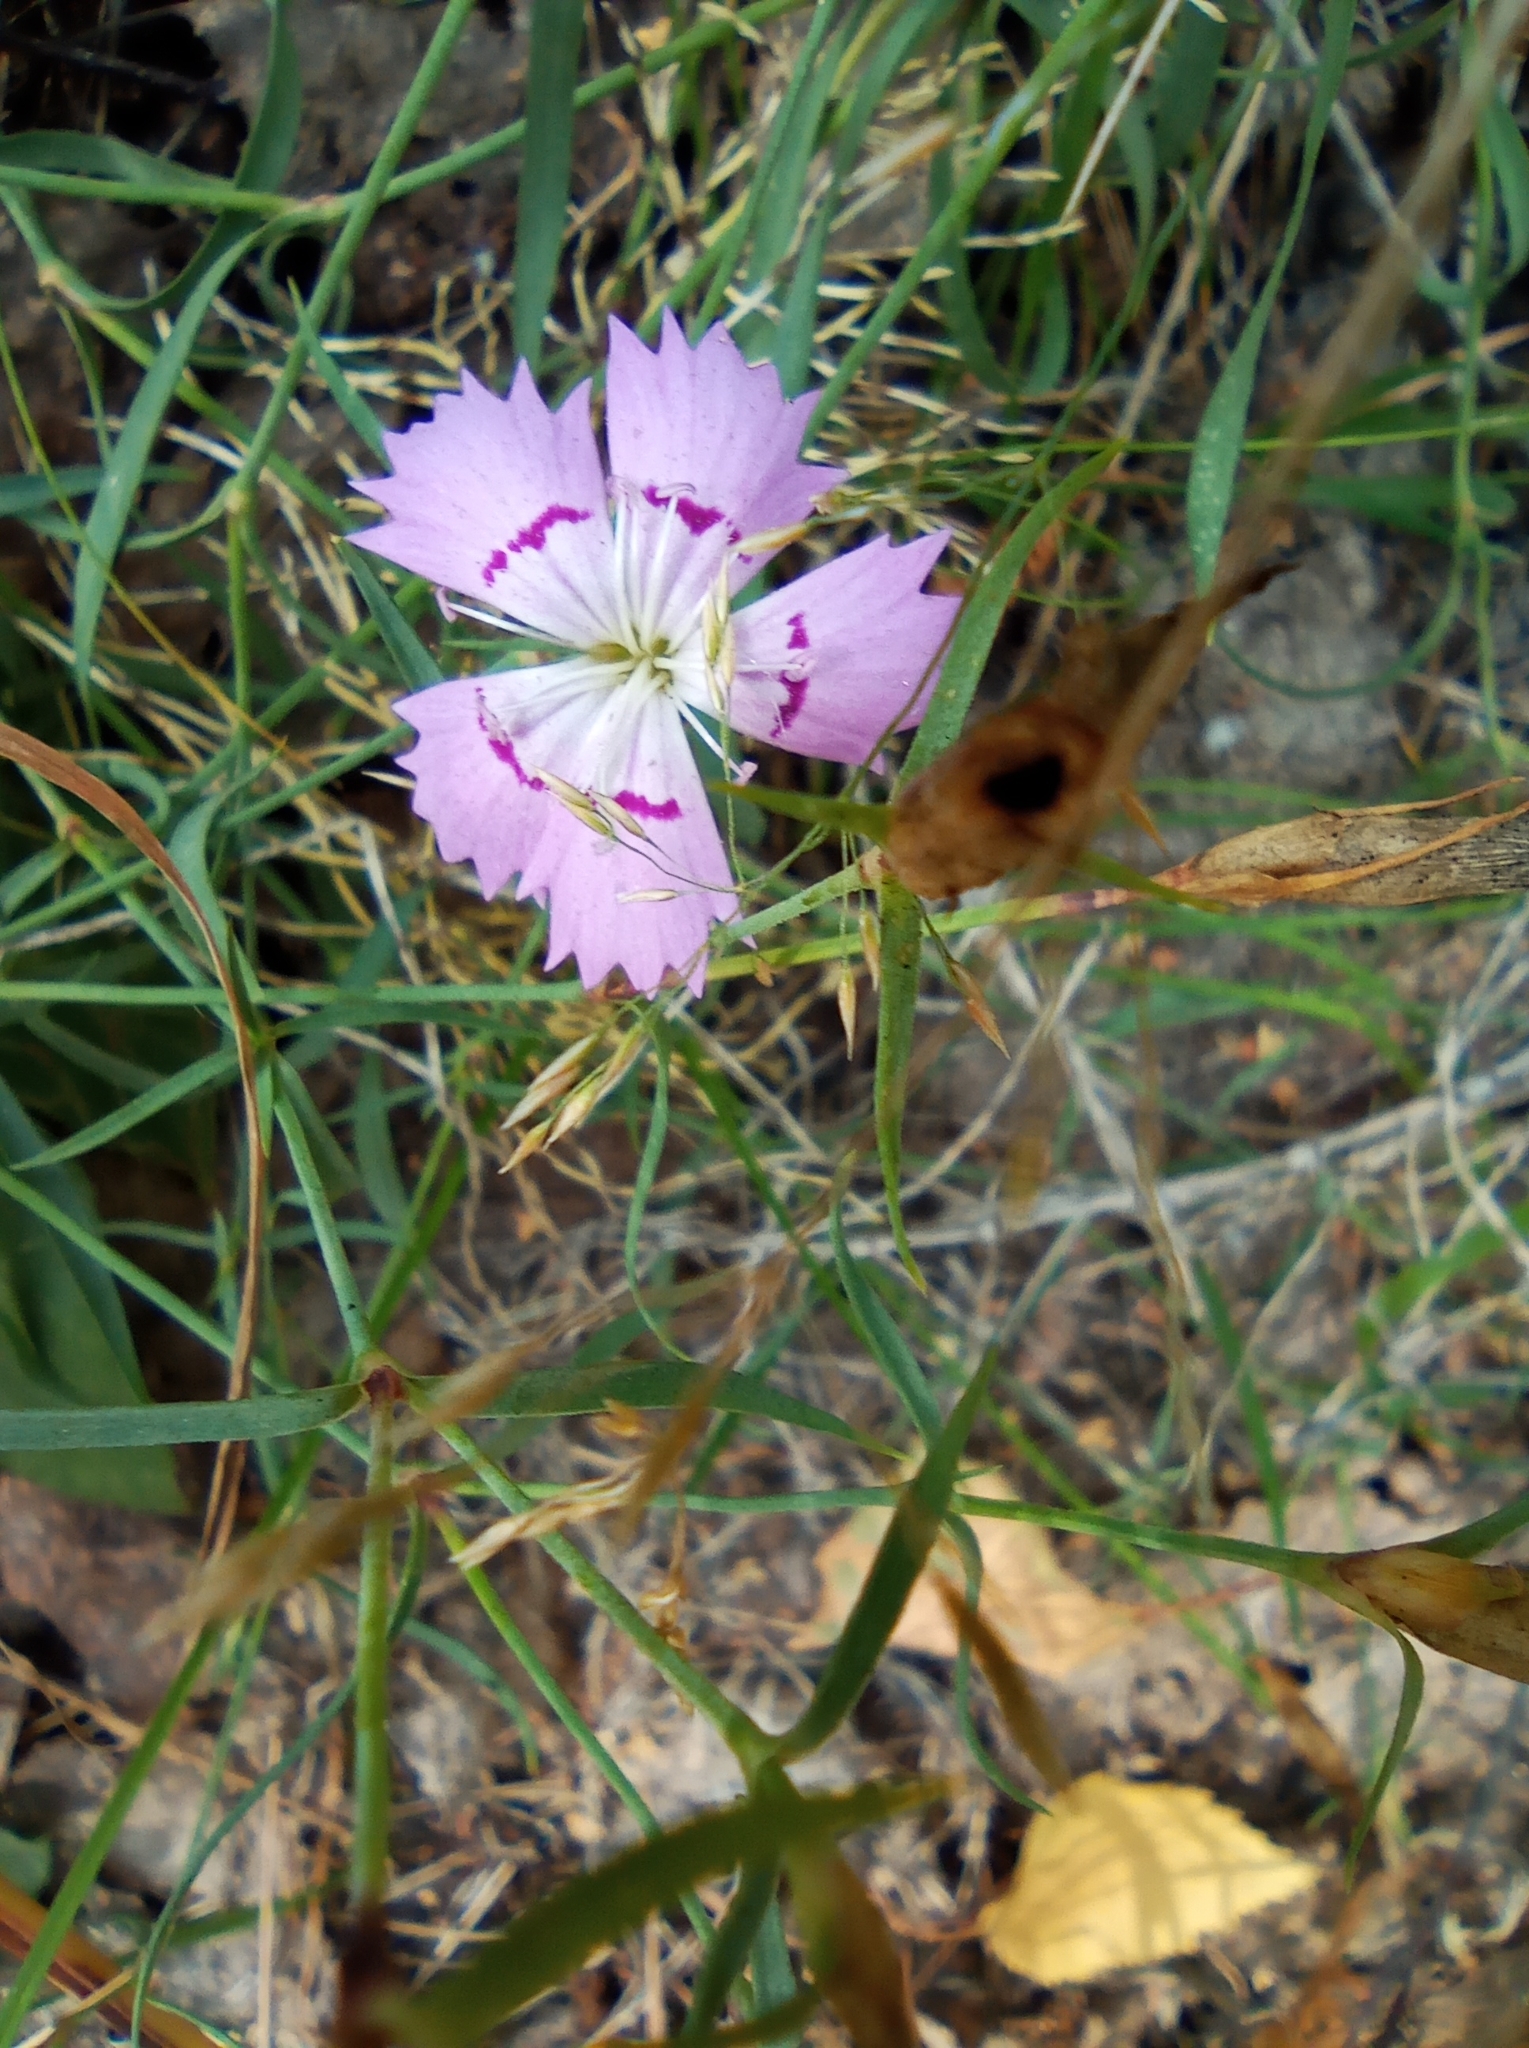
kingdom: Plantae
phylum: Tracheophyta
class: Magnoliopsida
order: Caryophyllales
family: Caryophyllaceae
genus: Dianthus
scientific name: Dianthus chinensis
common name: Rainbow pink
